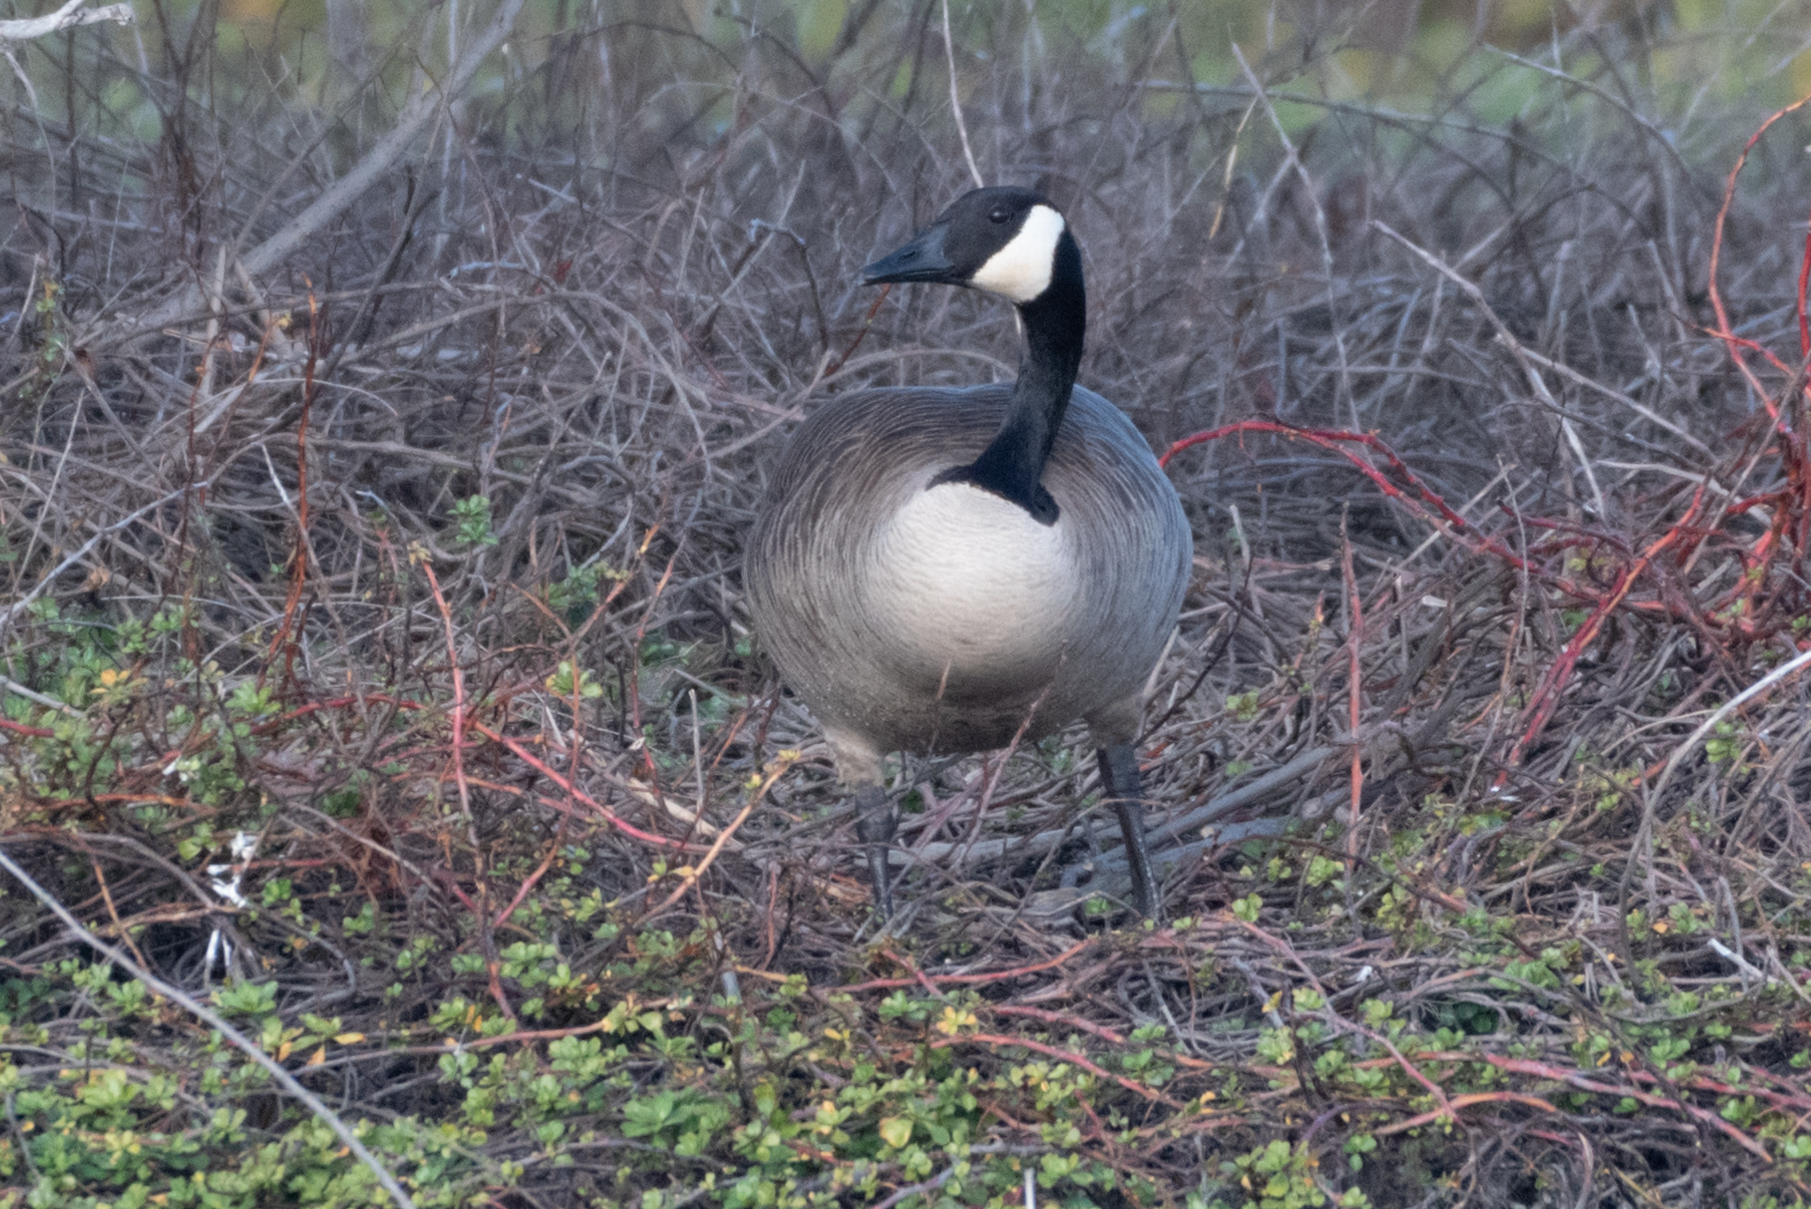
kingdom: Animalia
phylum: Chordata
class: Aves
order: Anseriformes
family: Anatidae
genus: Branta
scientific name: Branta canadensis
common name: Canada goose
